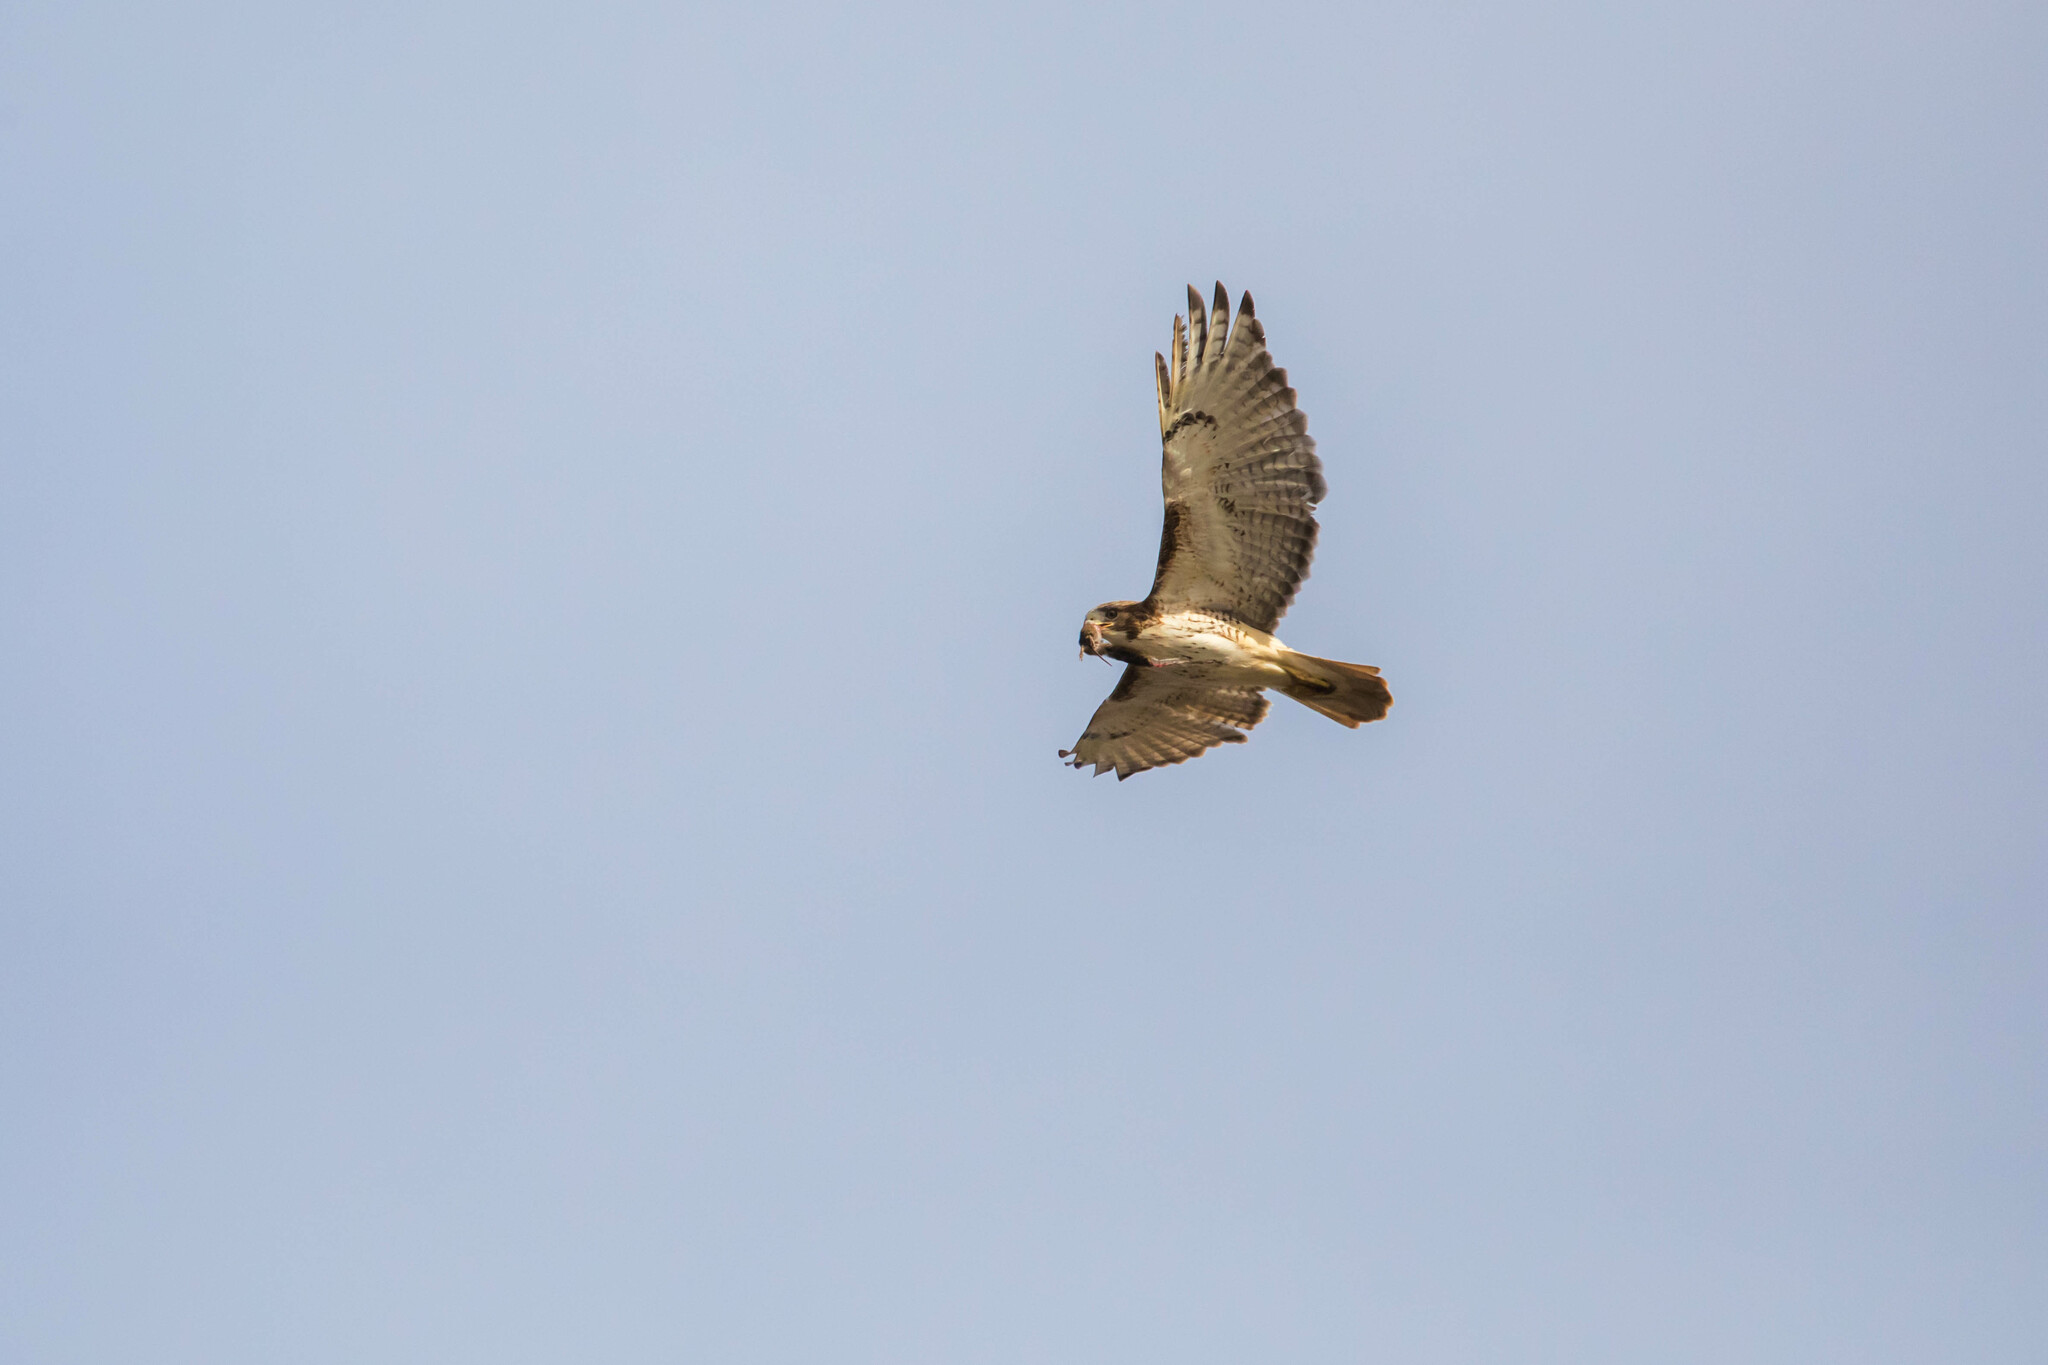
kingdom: Animalia
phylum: Chordata
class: Aves
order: Accipitriformes
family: Accipitridae
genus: Buteo
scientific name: Buteo jamaicensis
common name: Red-tailed hawk
